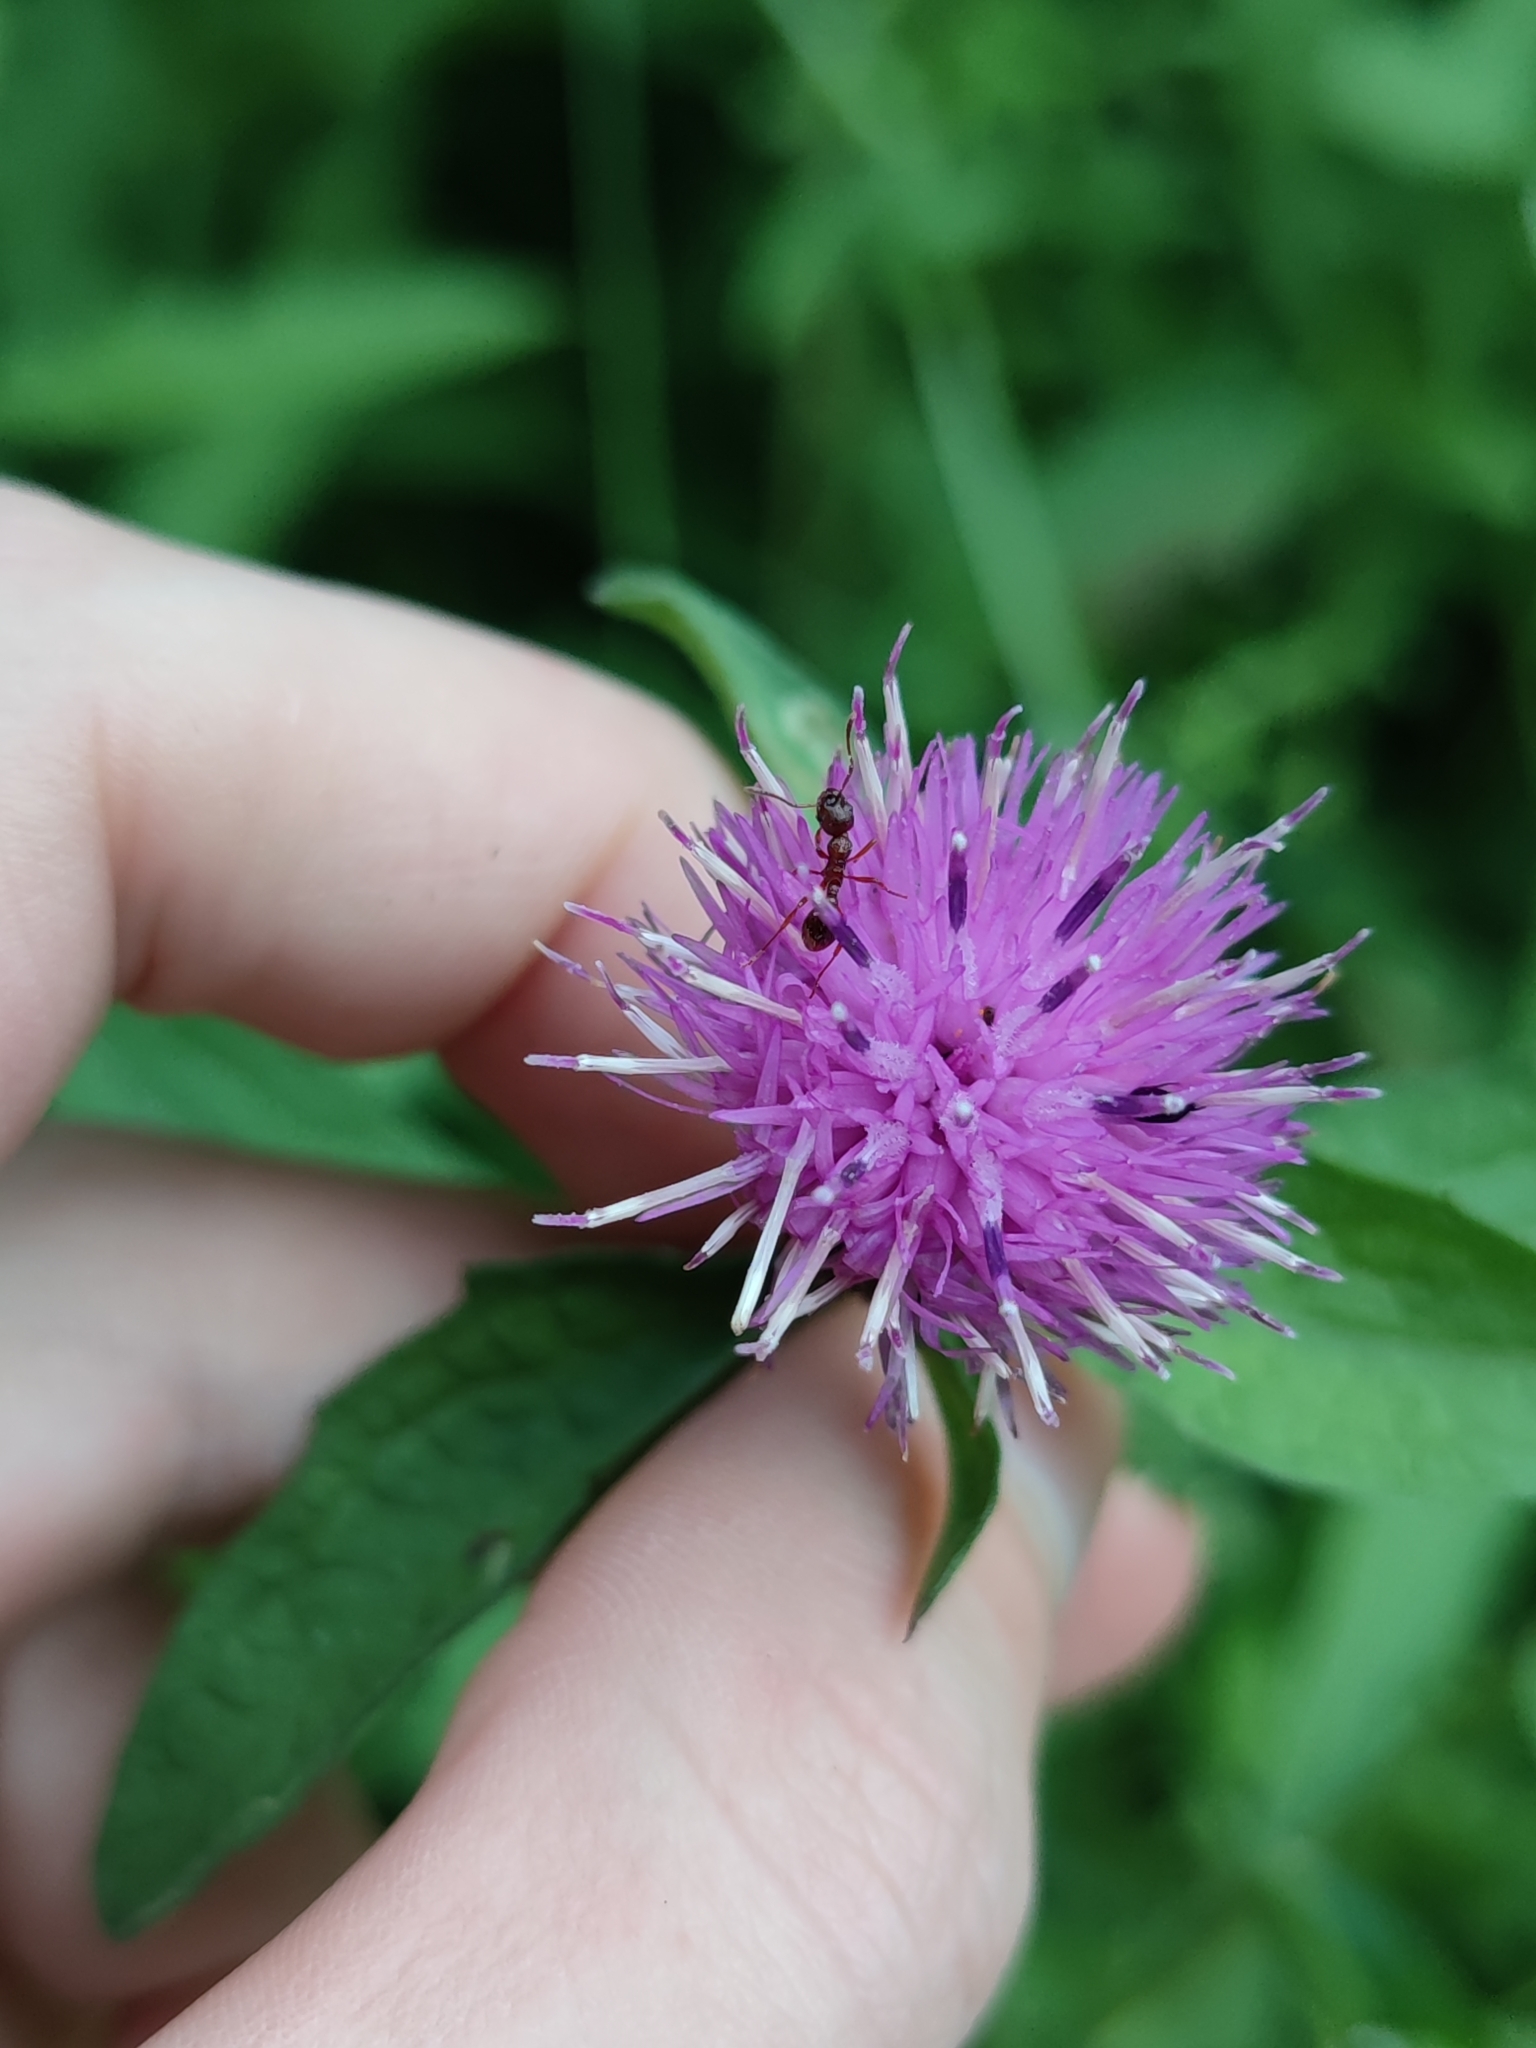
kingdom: Plantae
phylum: Tracheophyta
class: Magnoliopsida
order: Asterales
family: Asteraceae
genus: Centaurea
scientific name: Centaurea nigra
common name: Lesser knapweed
